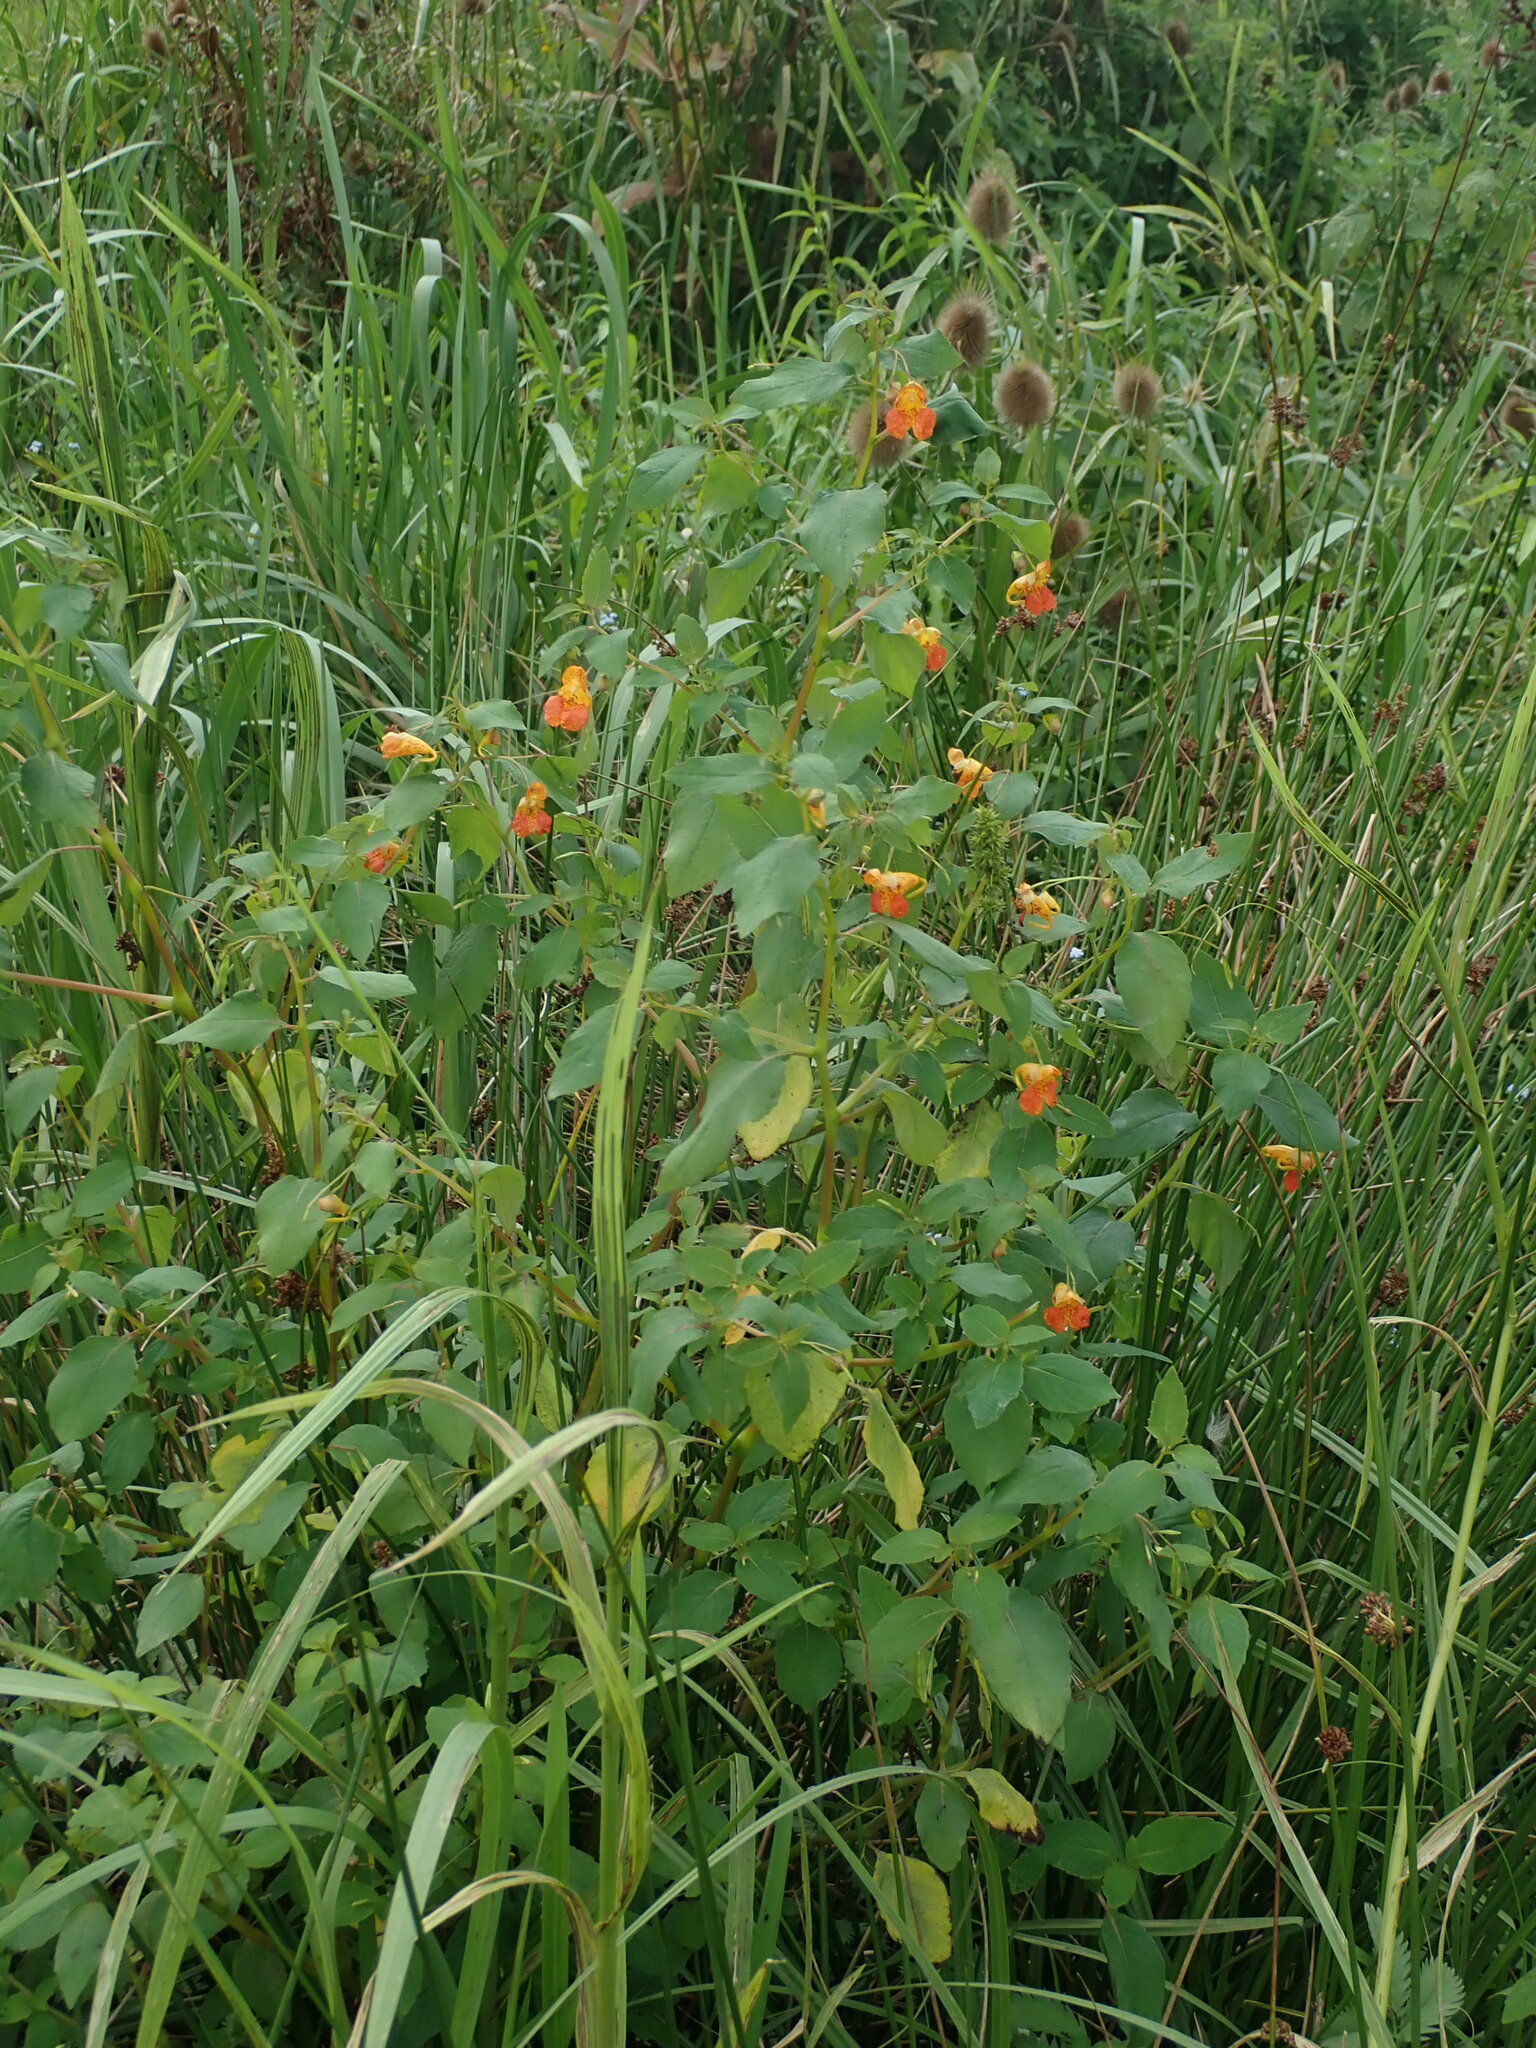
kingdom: Plantae
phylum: Tracheophyta
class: Magnoliopsida
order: Ericales
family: Balsaminaceae
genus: Impatiens
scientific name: Impatiens capensis
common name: Orange balsam
